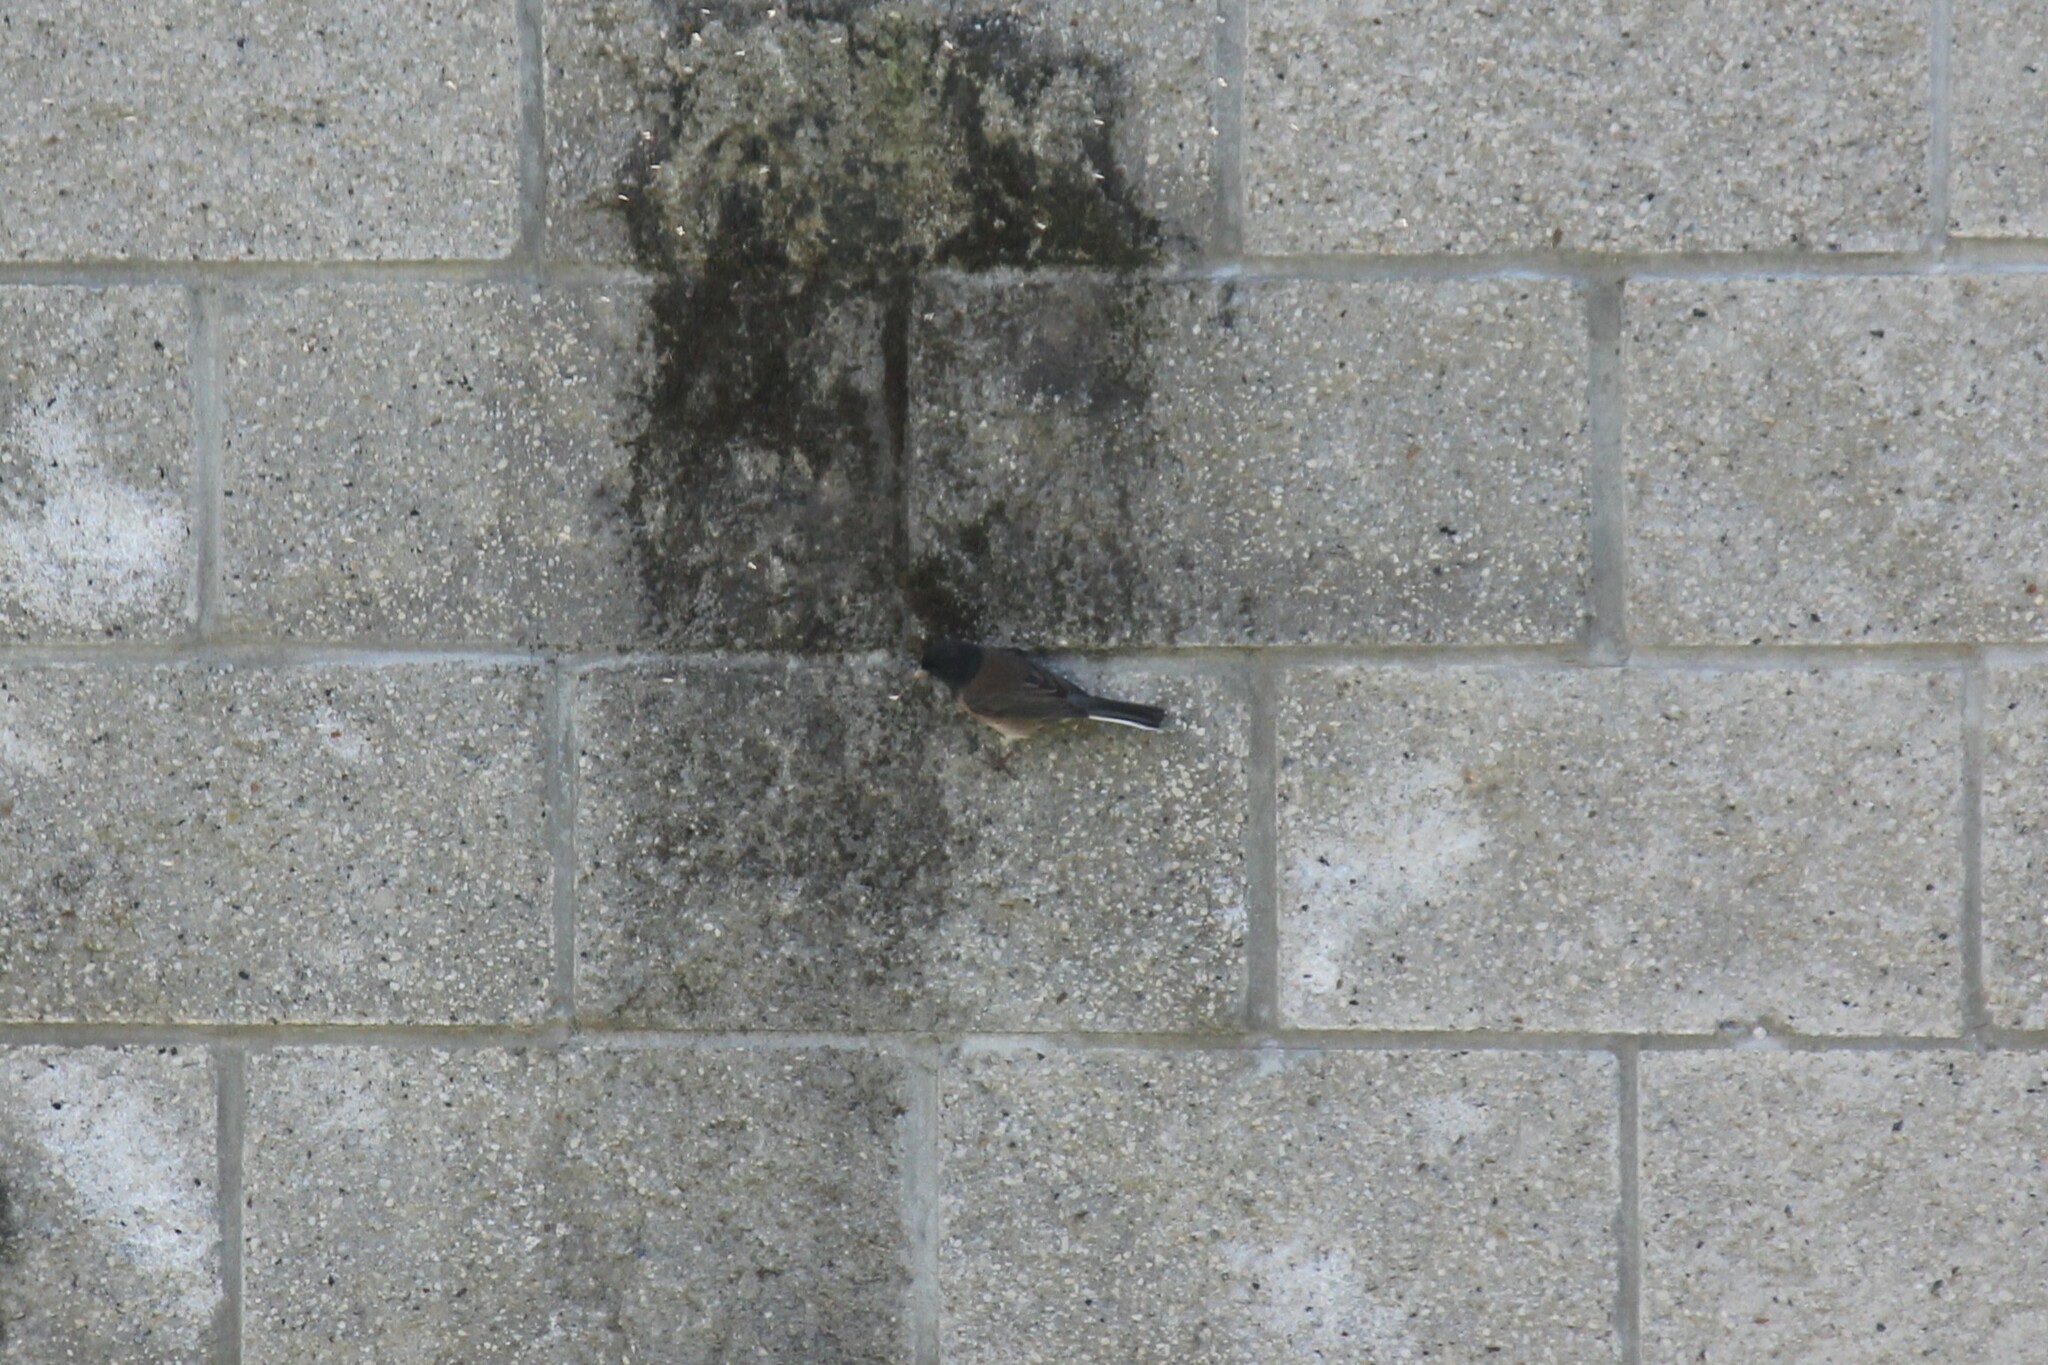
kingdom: Animalia
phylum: Chordata
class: Aves
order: Passeriformes
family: Passerellidae
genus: Junco
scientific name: Junco hyemalis
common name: Dark-eyed junco
